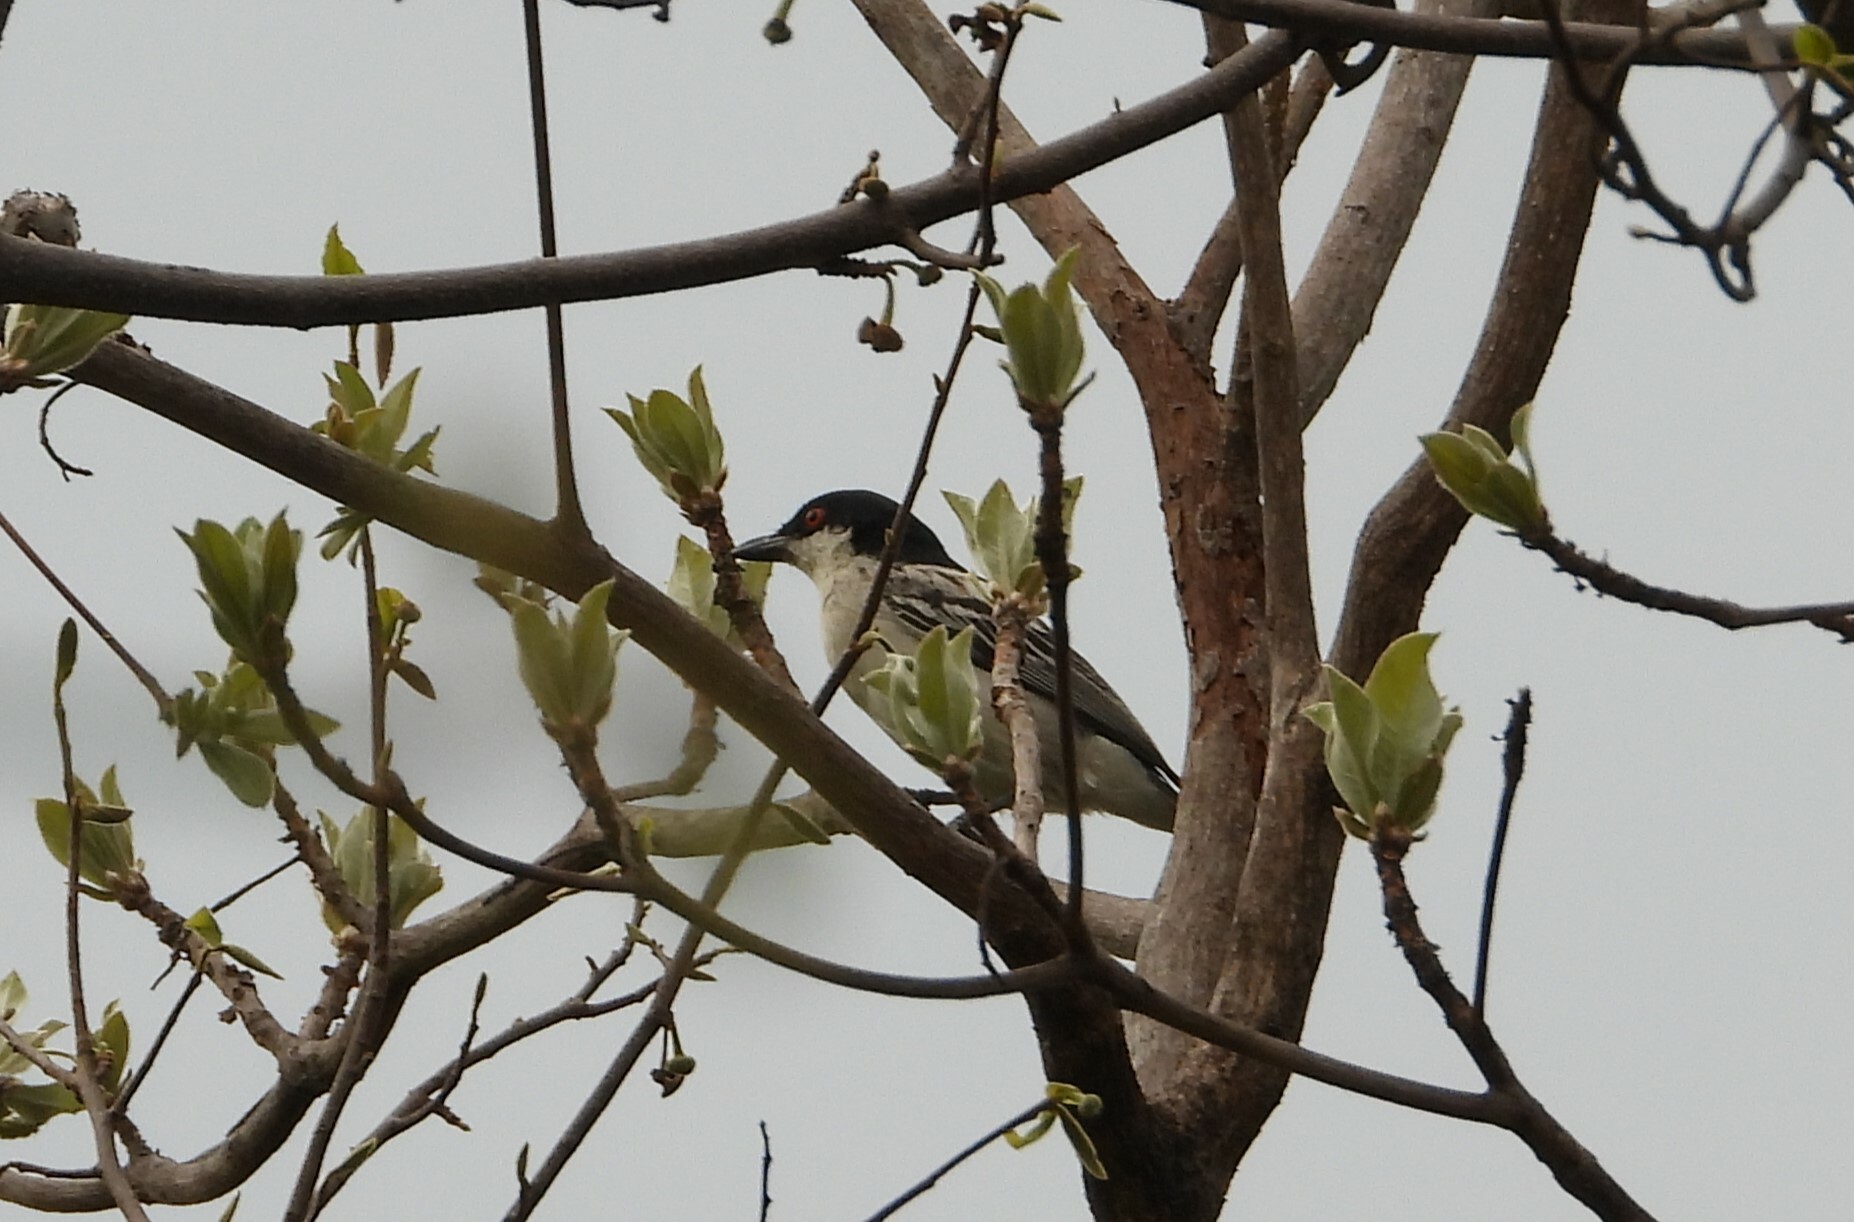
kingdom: Animalia
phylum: Chordata
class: Aves
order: Passeriformes
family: Malaconotidae
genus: Dryoscopus
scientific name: Dryoscopus cubla
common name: Black-backed puffback
